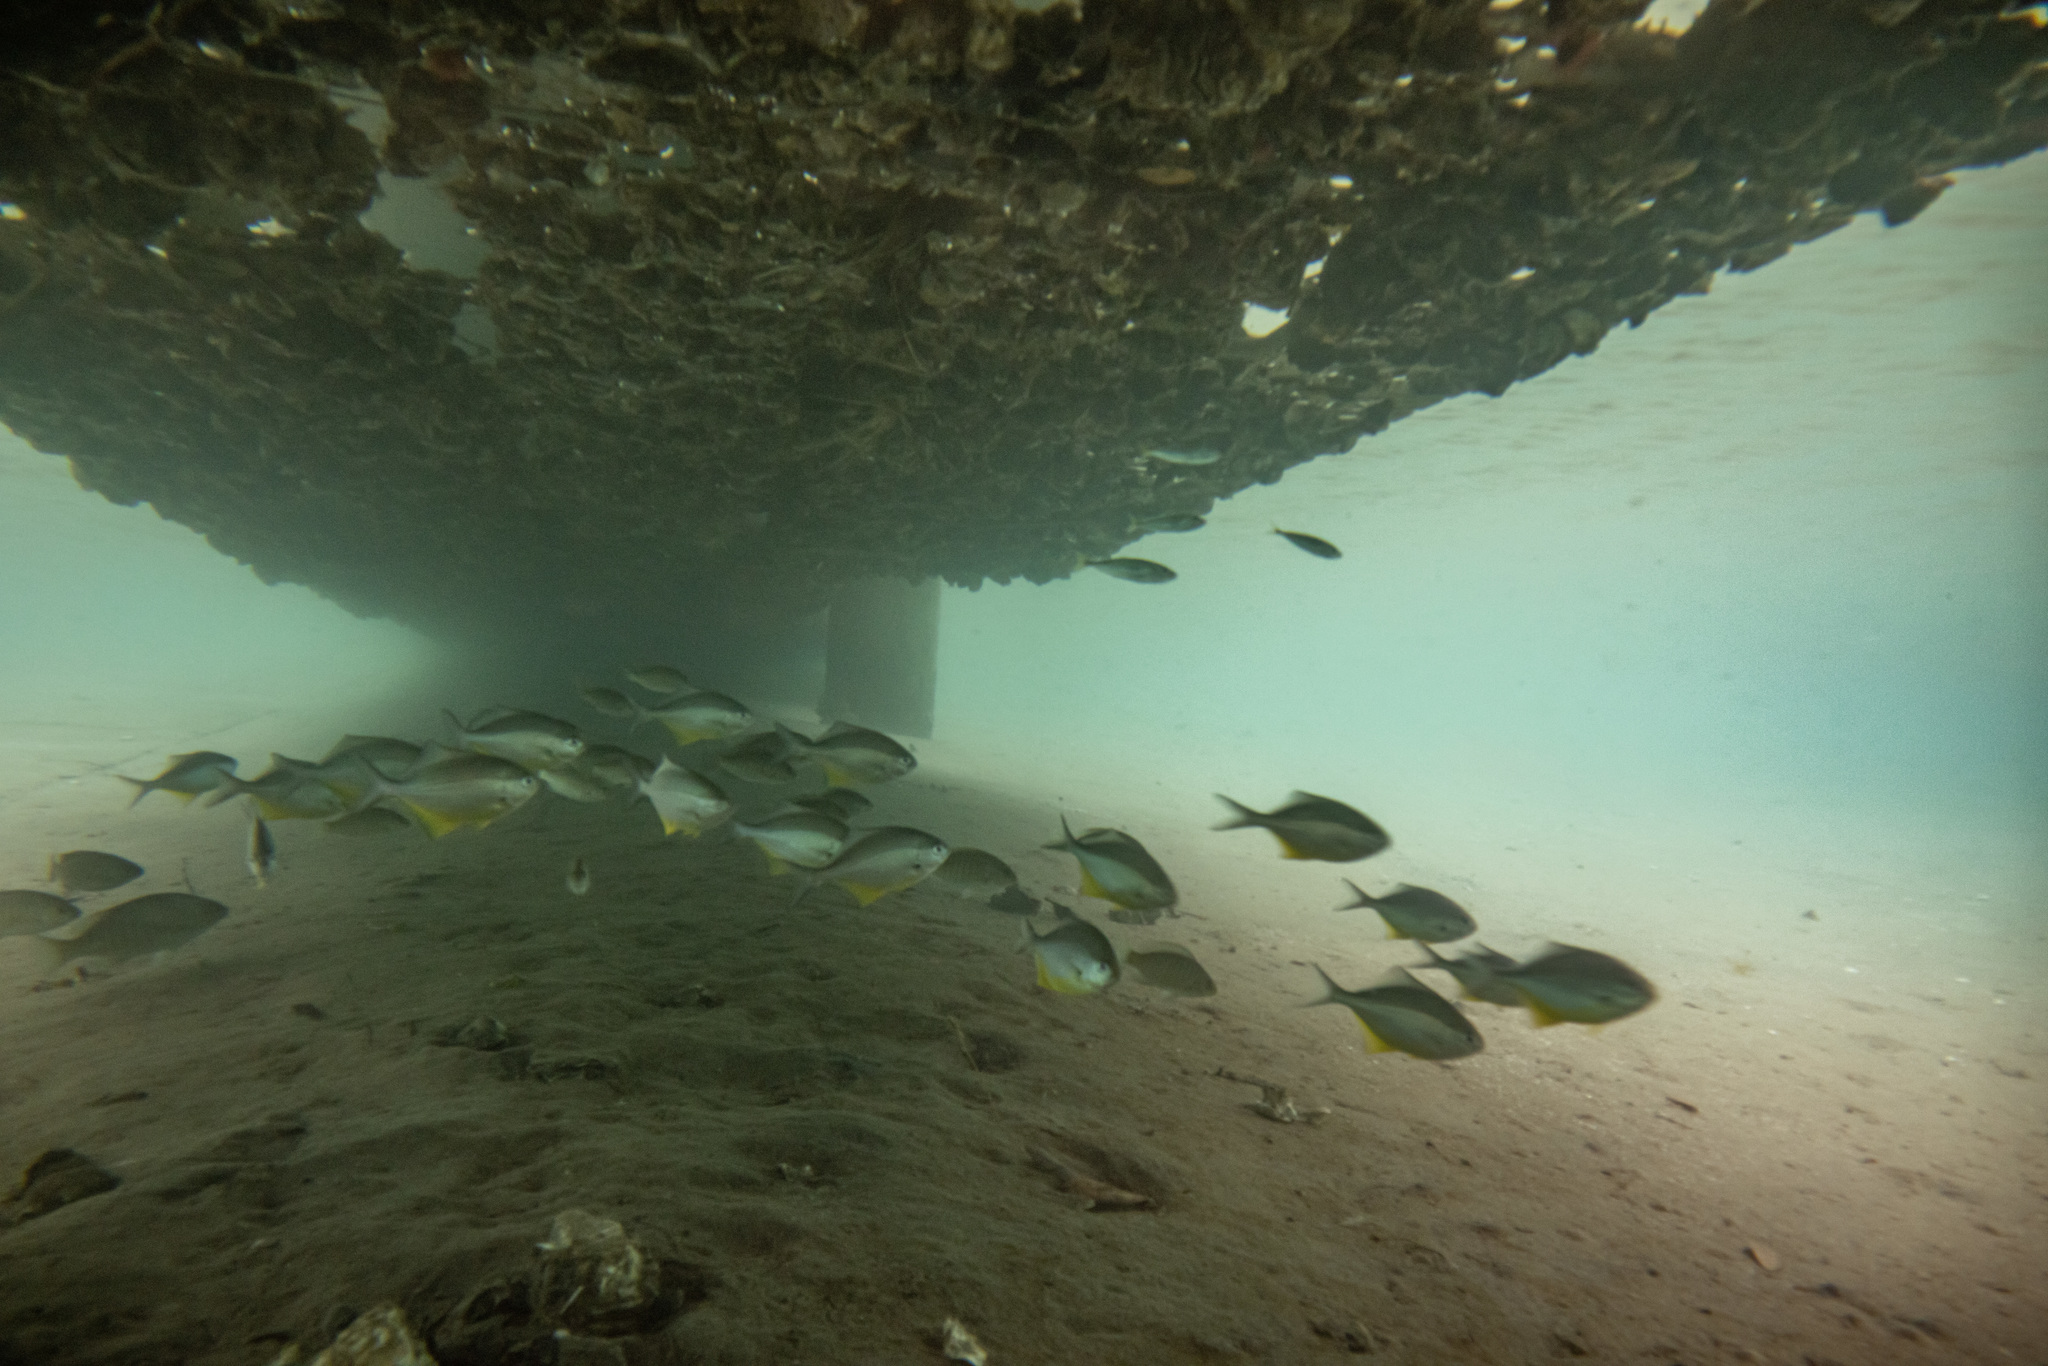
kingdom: Animalia
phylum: Chordata
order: Perciformes
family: Kyphosidae
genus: Scorpis
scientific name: Scorpis violacea
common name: Blue maomao
